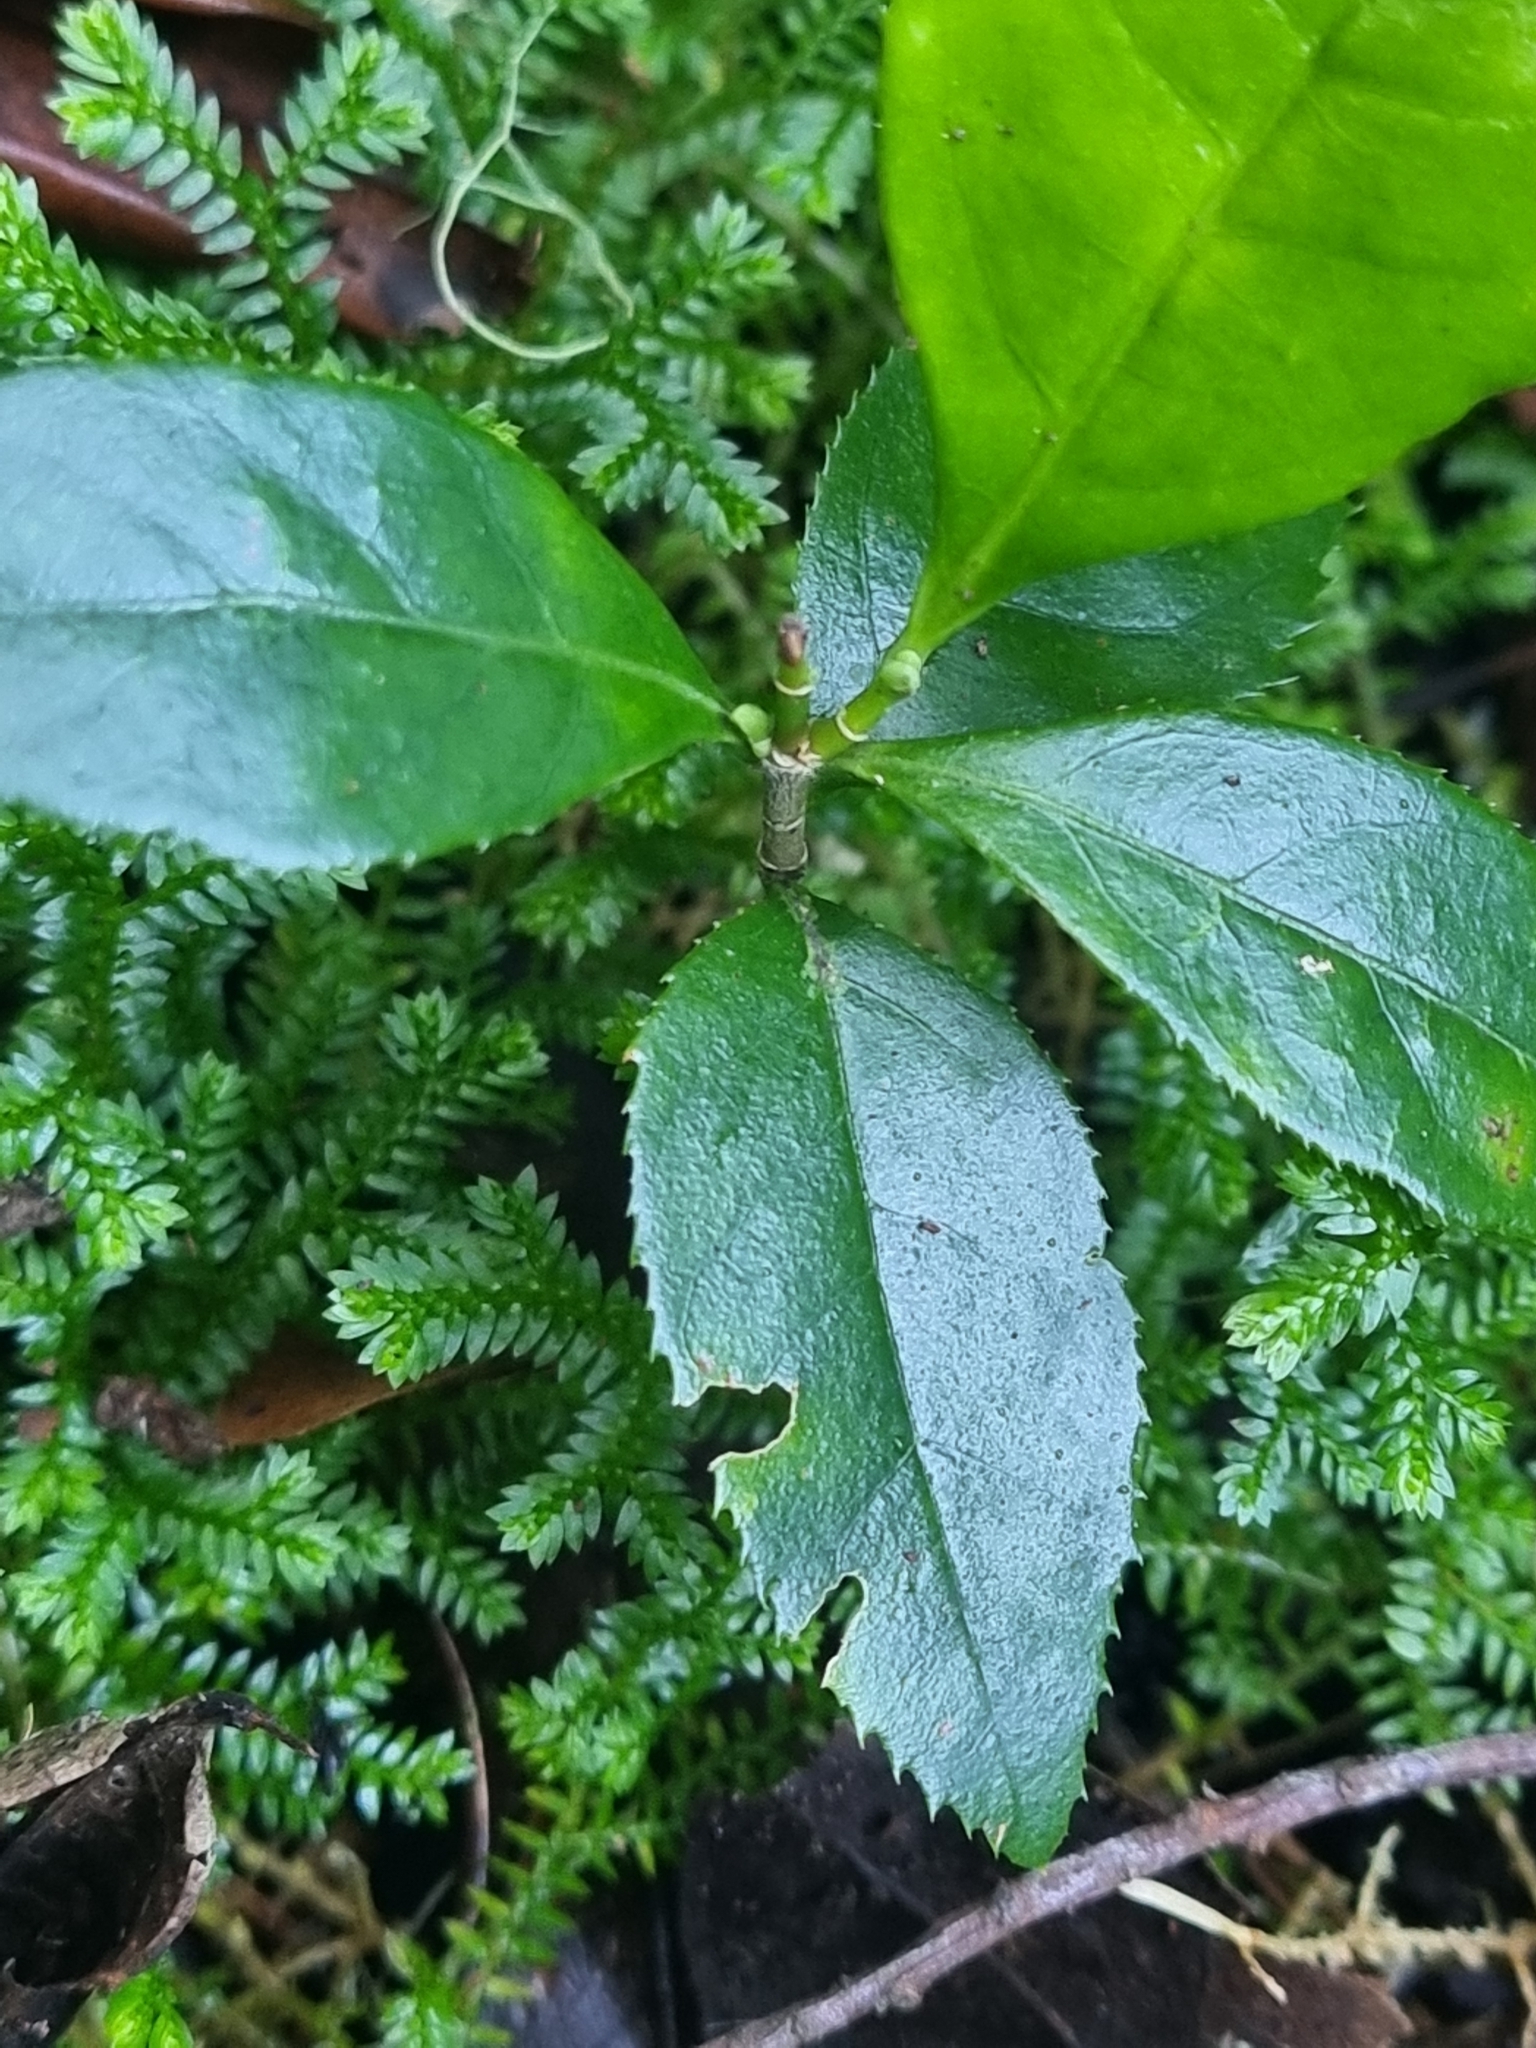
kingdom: Plantae
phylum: Tracheophyta
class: Magnoliopsida
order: Lamiales
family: Oleaceae
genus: Picconia
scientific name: Picconia excelsa
